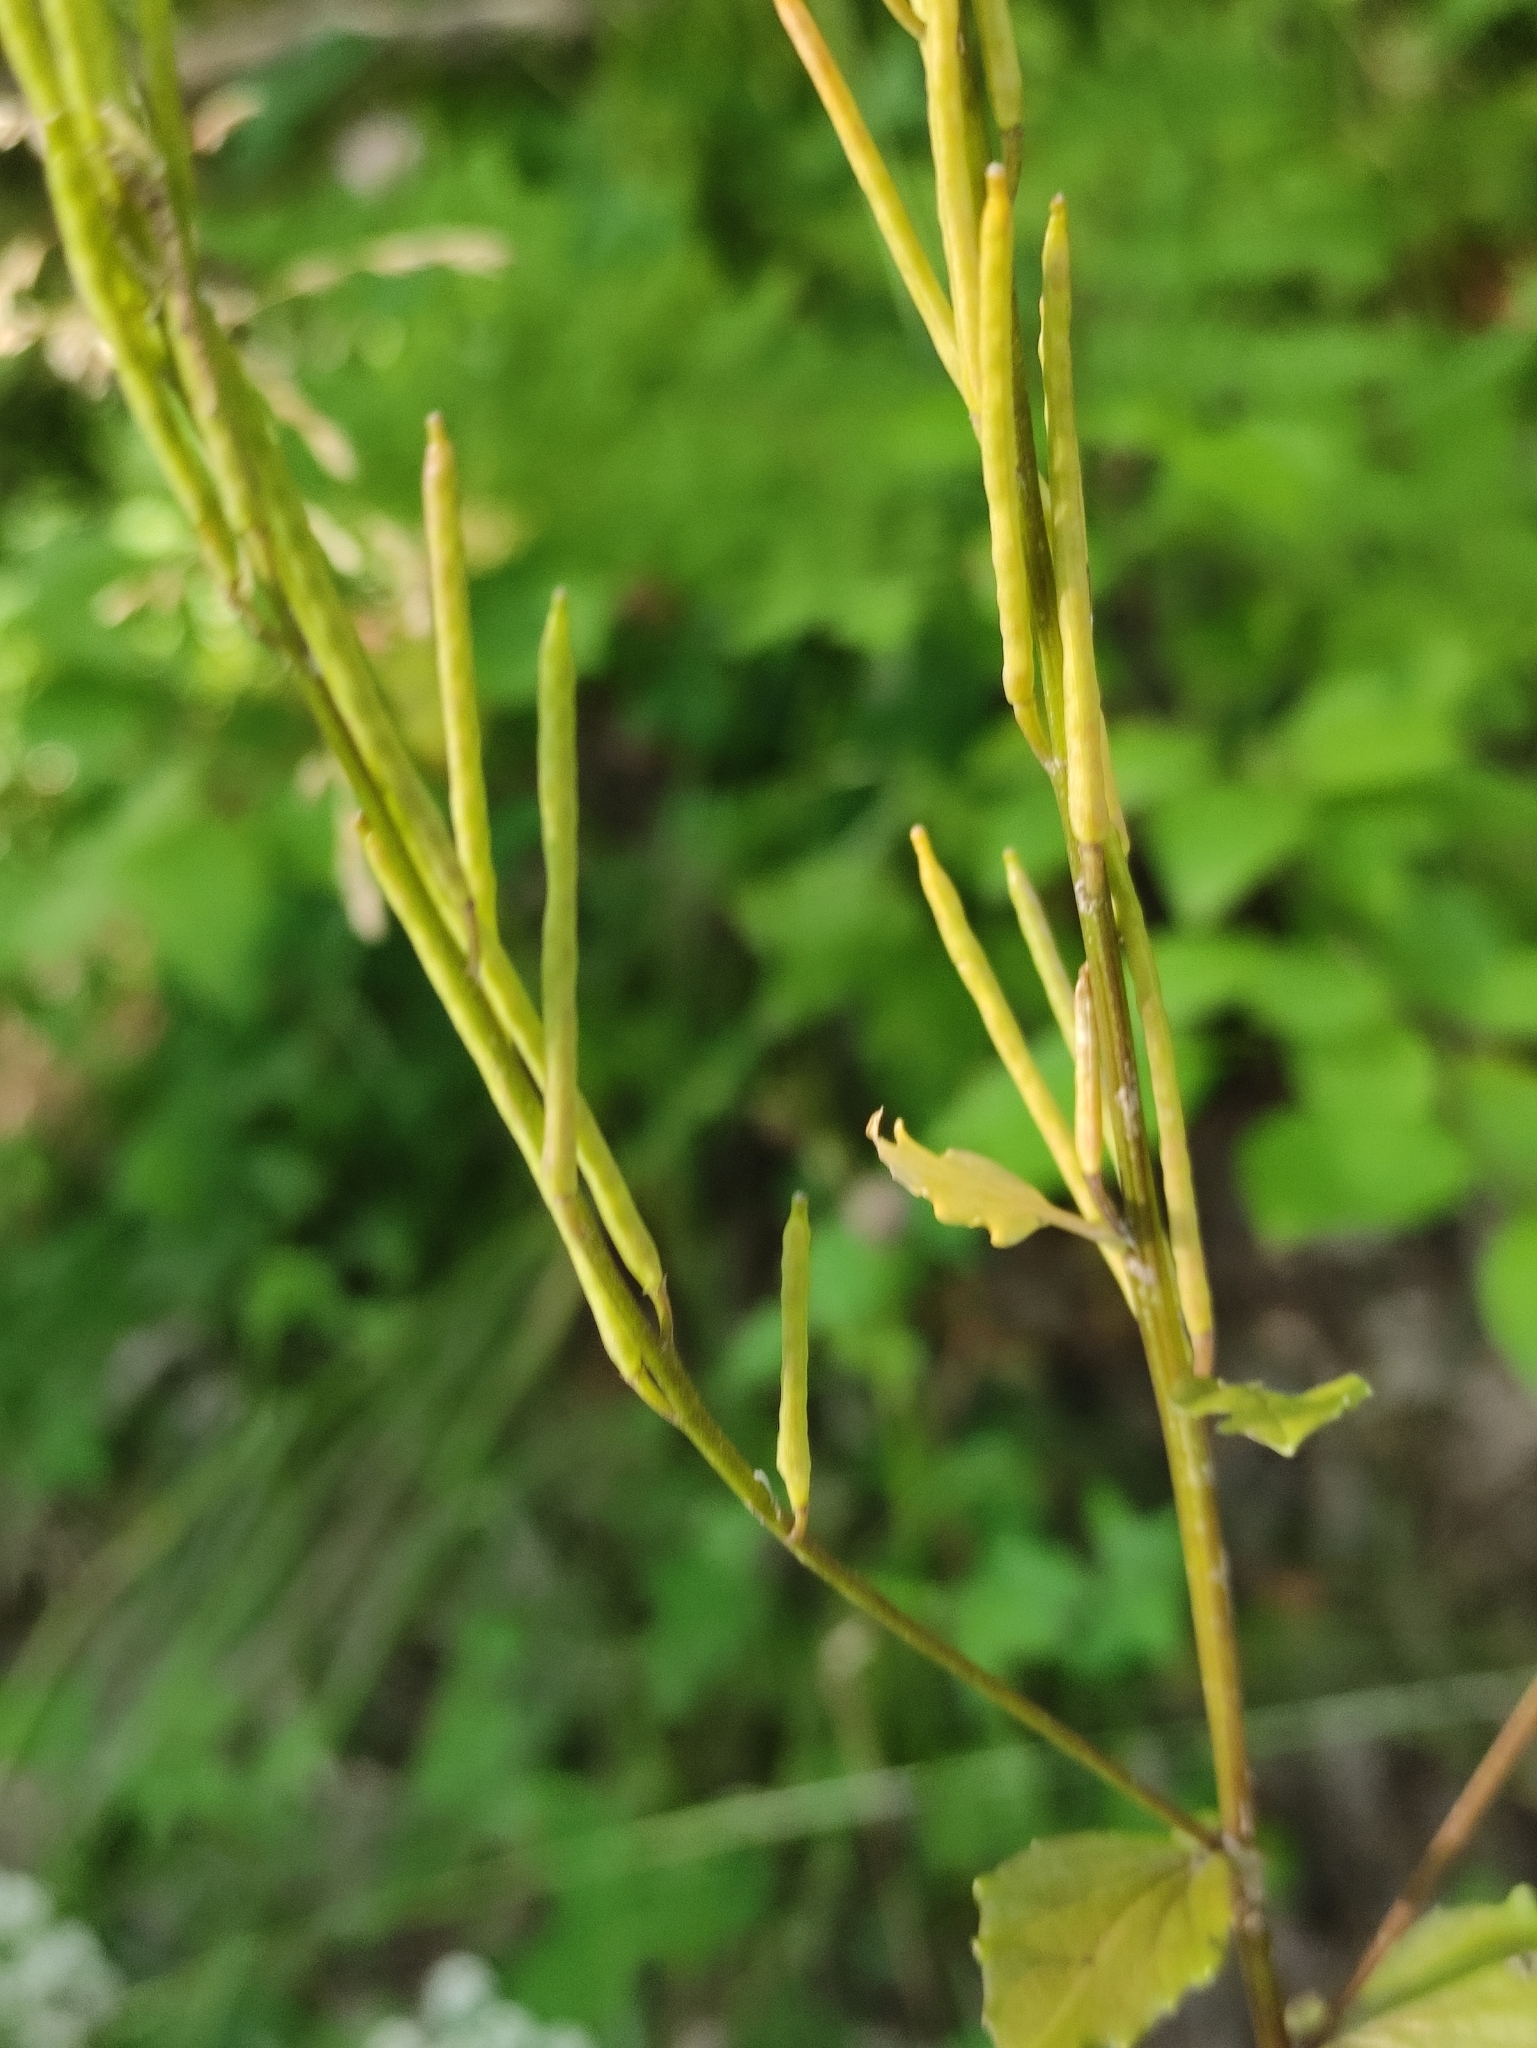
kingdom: Plantae
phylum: Tracheophyta
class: Magnoliopsida
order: Brassicales
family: Brassicaceae
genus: Barbarea
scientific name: Barbarea stricta
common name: Small-flowered winter-cress
